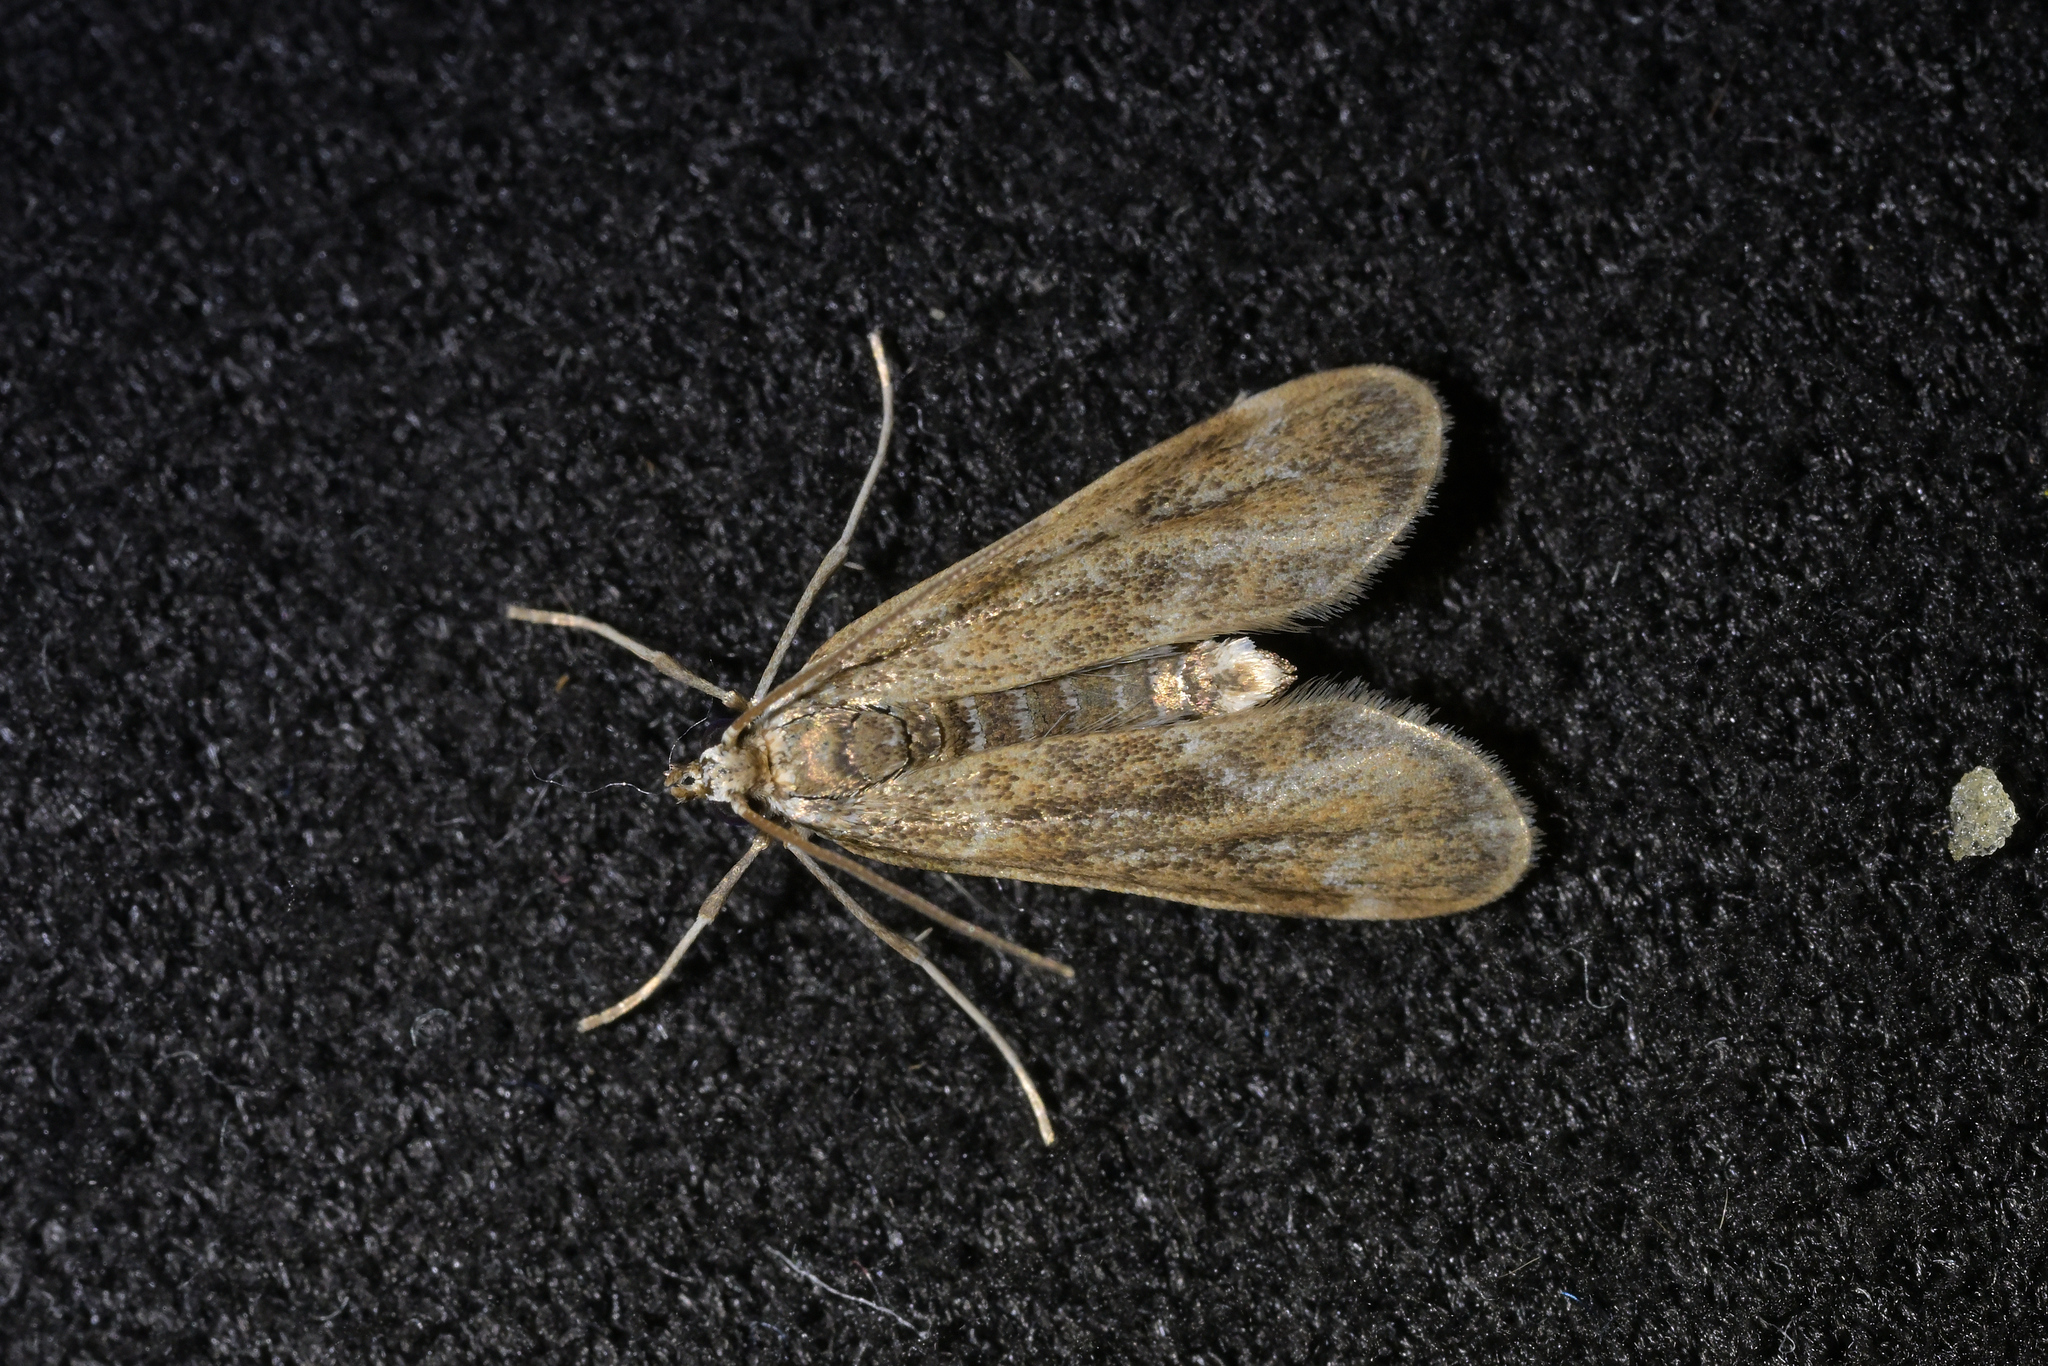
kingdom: Animalia
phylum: Arthropoda
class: Insecta
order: Lepidoptera
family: Crambidae
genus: Hygraula
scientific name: Hygraula nitens
